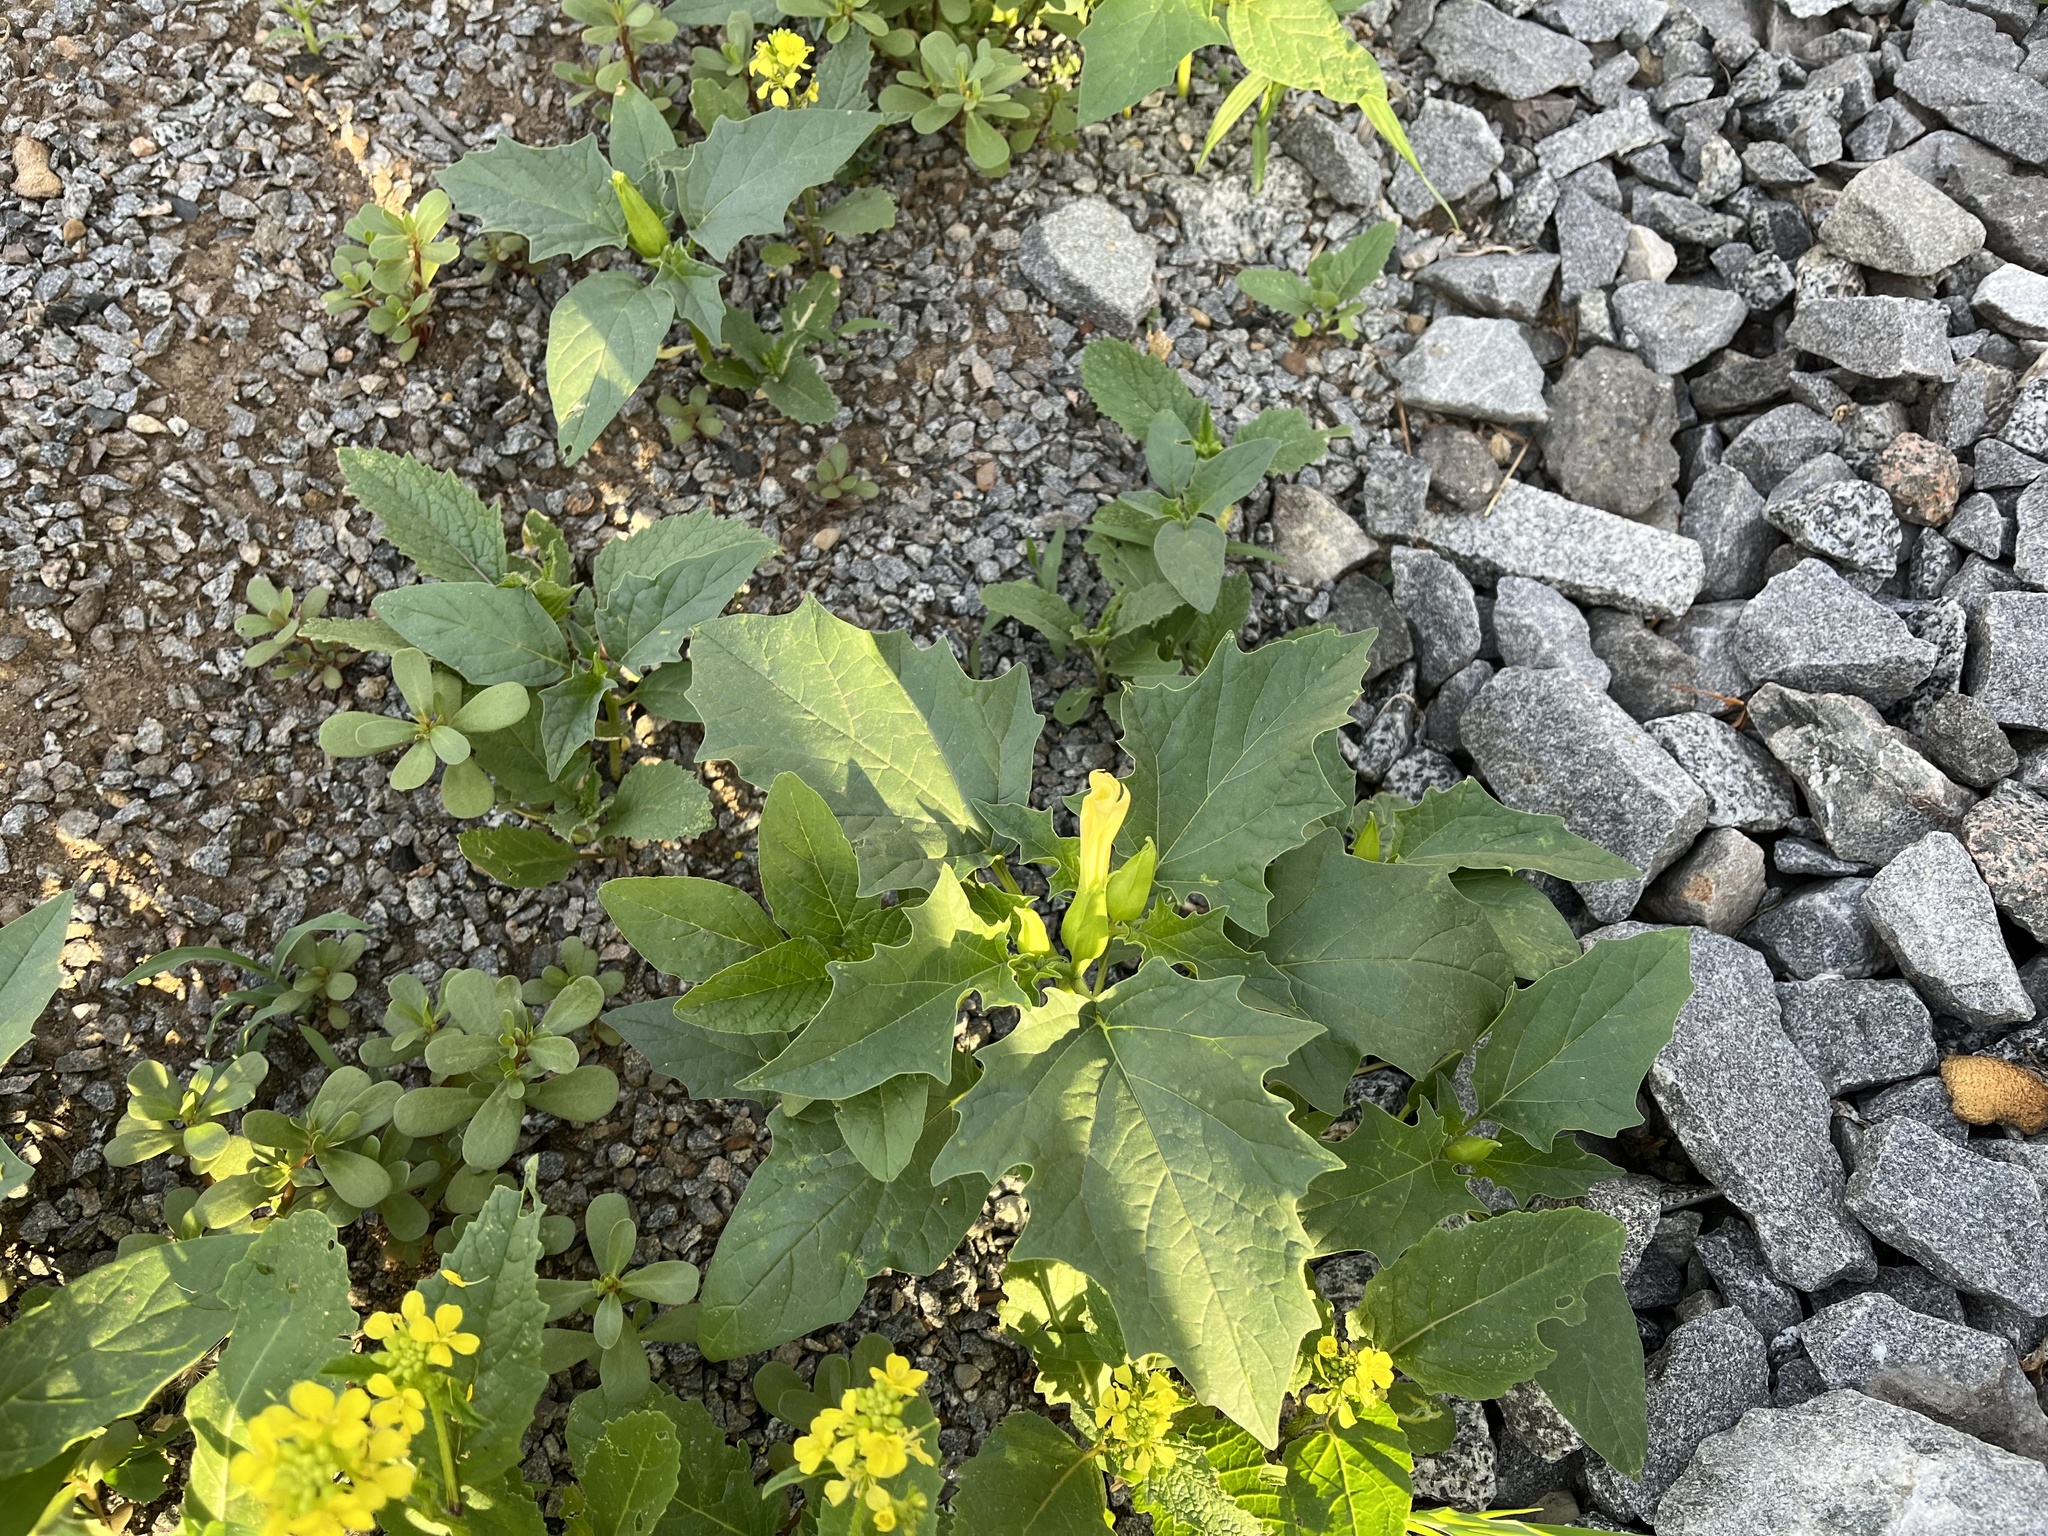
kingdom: Plantae
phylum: Tracheophyta
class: Magnoliopsida
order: Solanales
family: Solanaceae
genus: Datura
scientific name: Datura stramonium
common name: Thorn-apple
